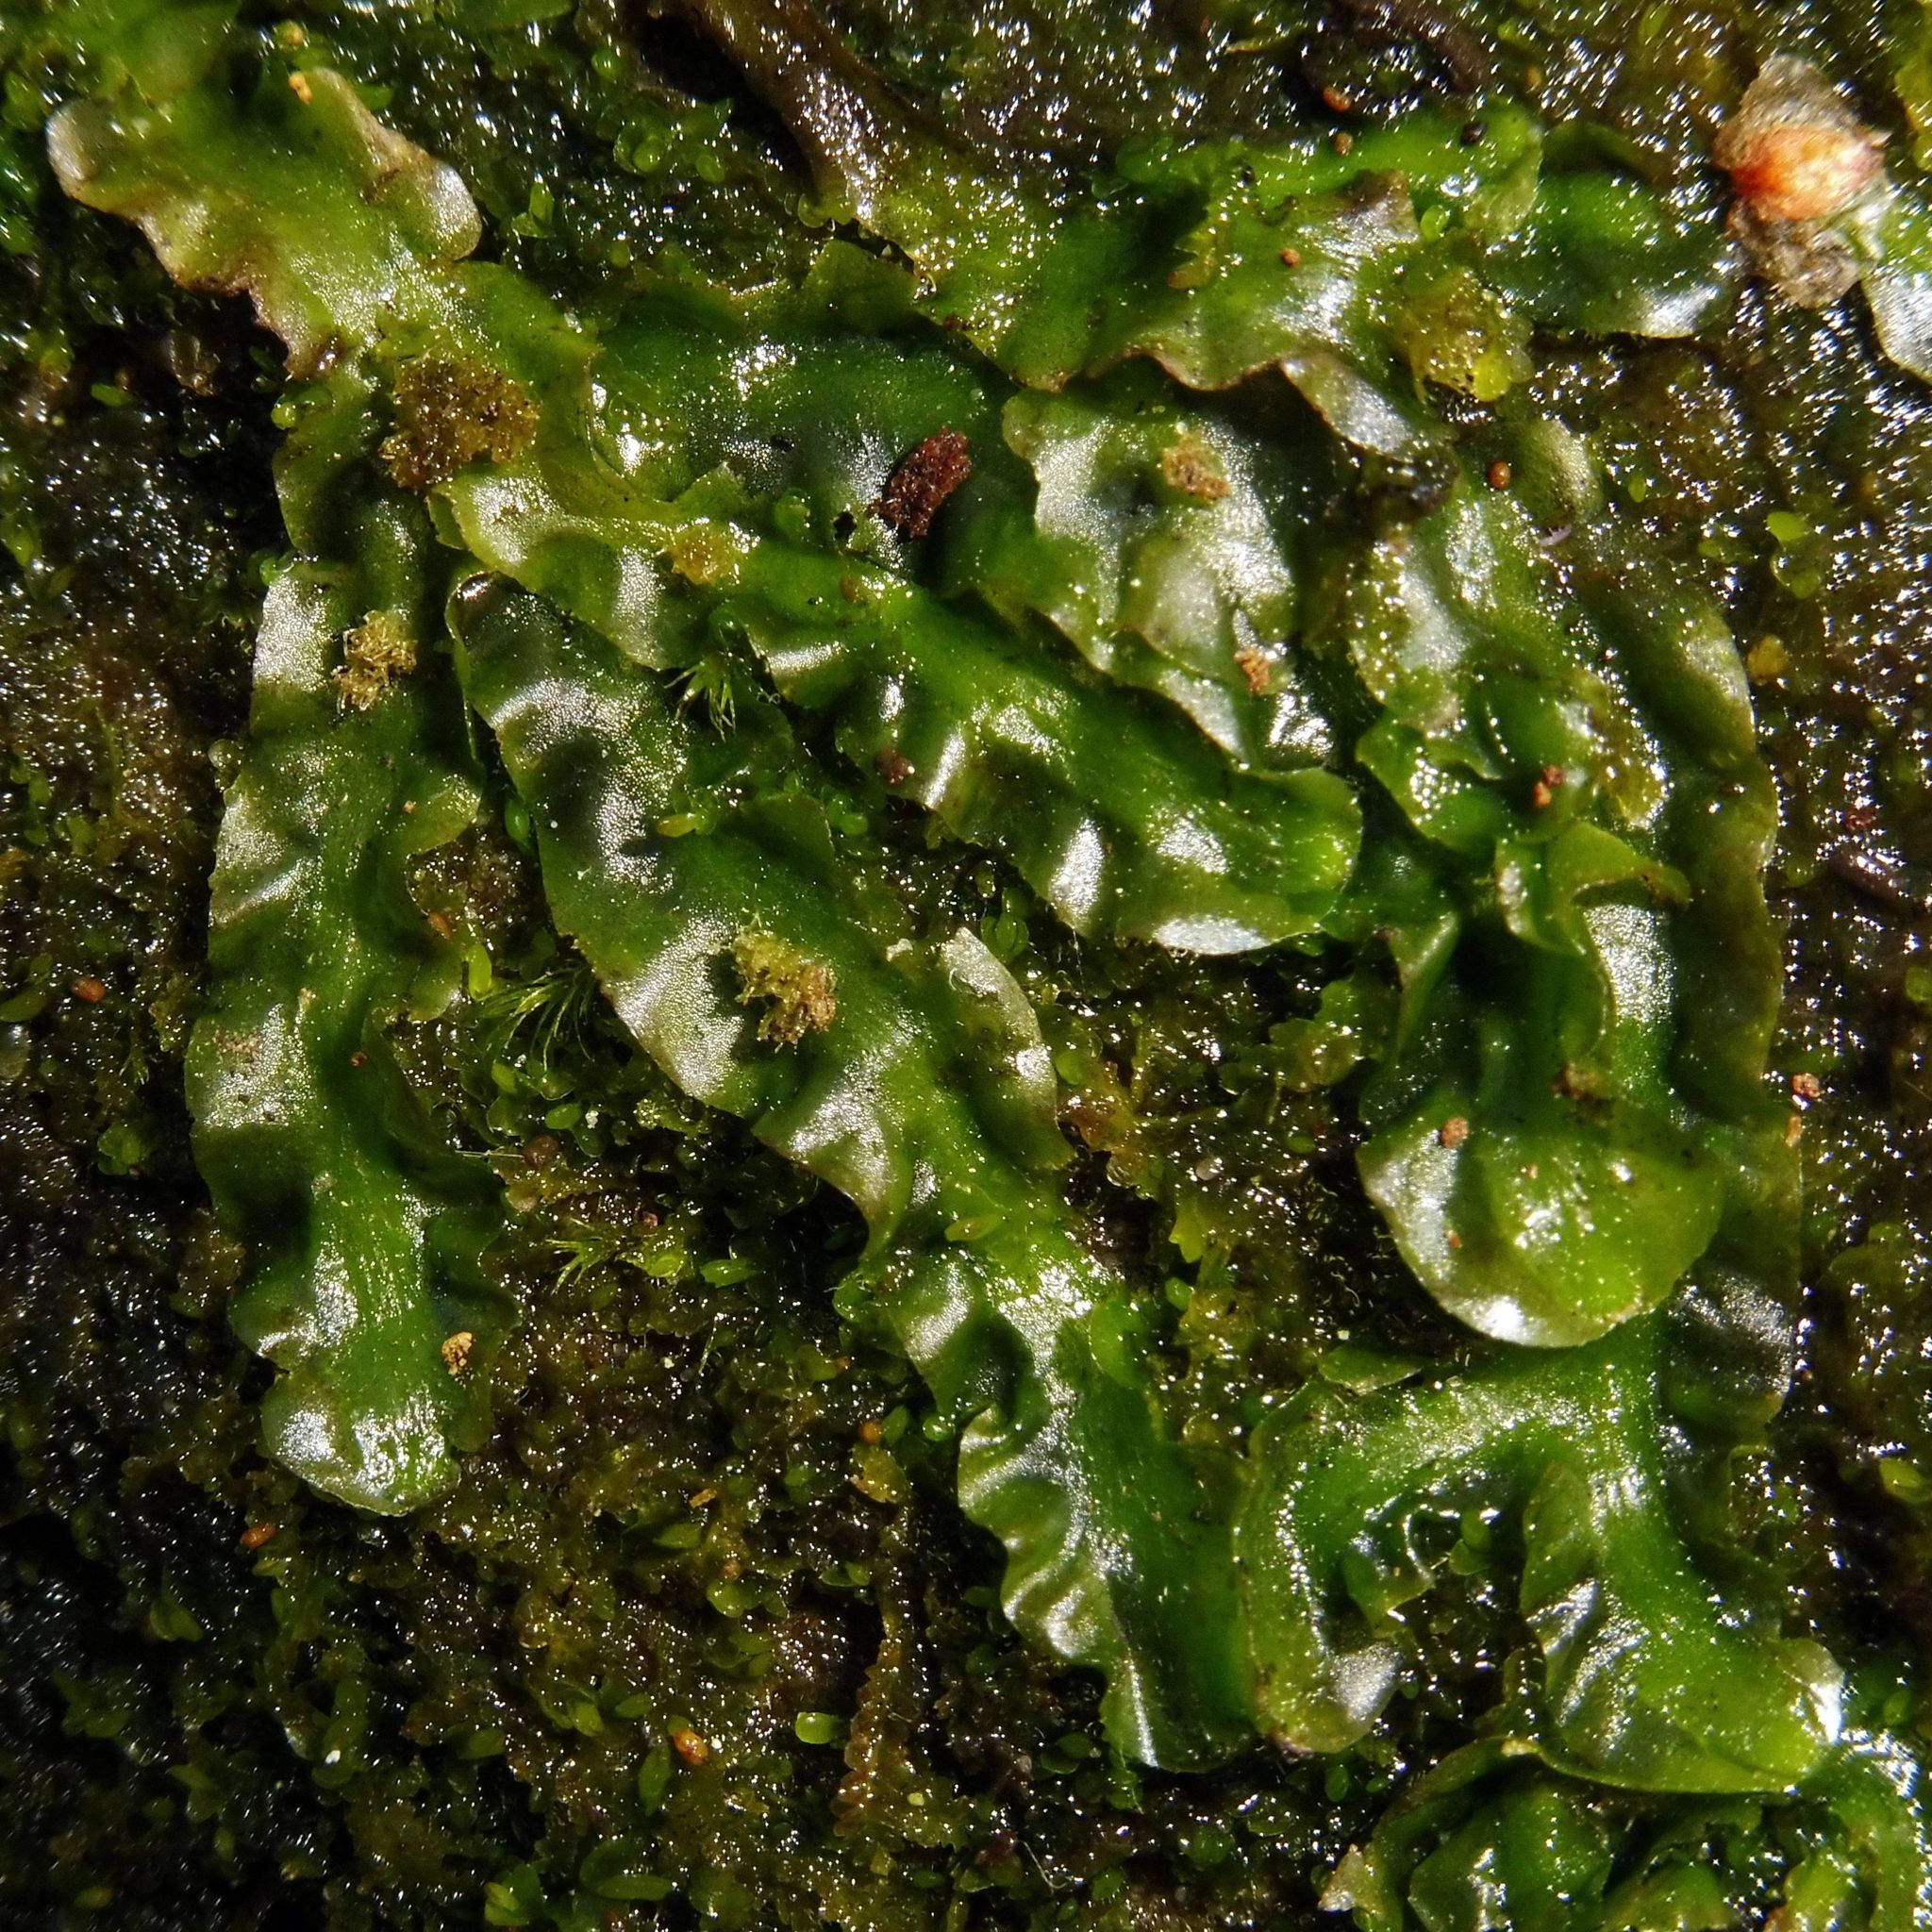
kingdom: Plantae
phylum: Marchantiophyta
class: Jungermanniopsida
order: Pallaviciniales
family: Pallaviciniaceae
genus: Pallavicinia
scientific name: Pallavicinia lyellii
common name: Veilwort
